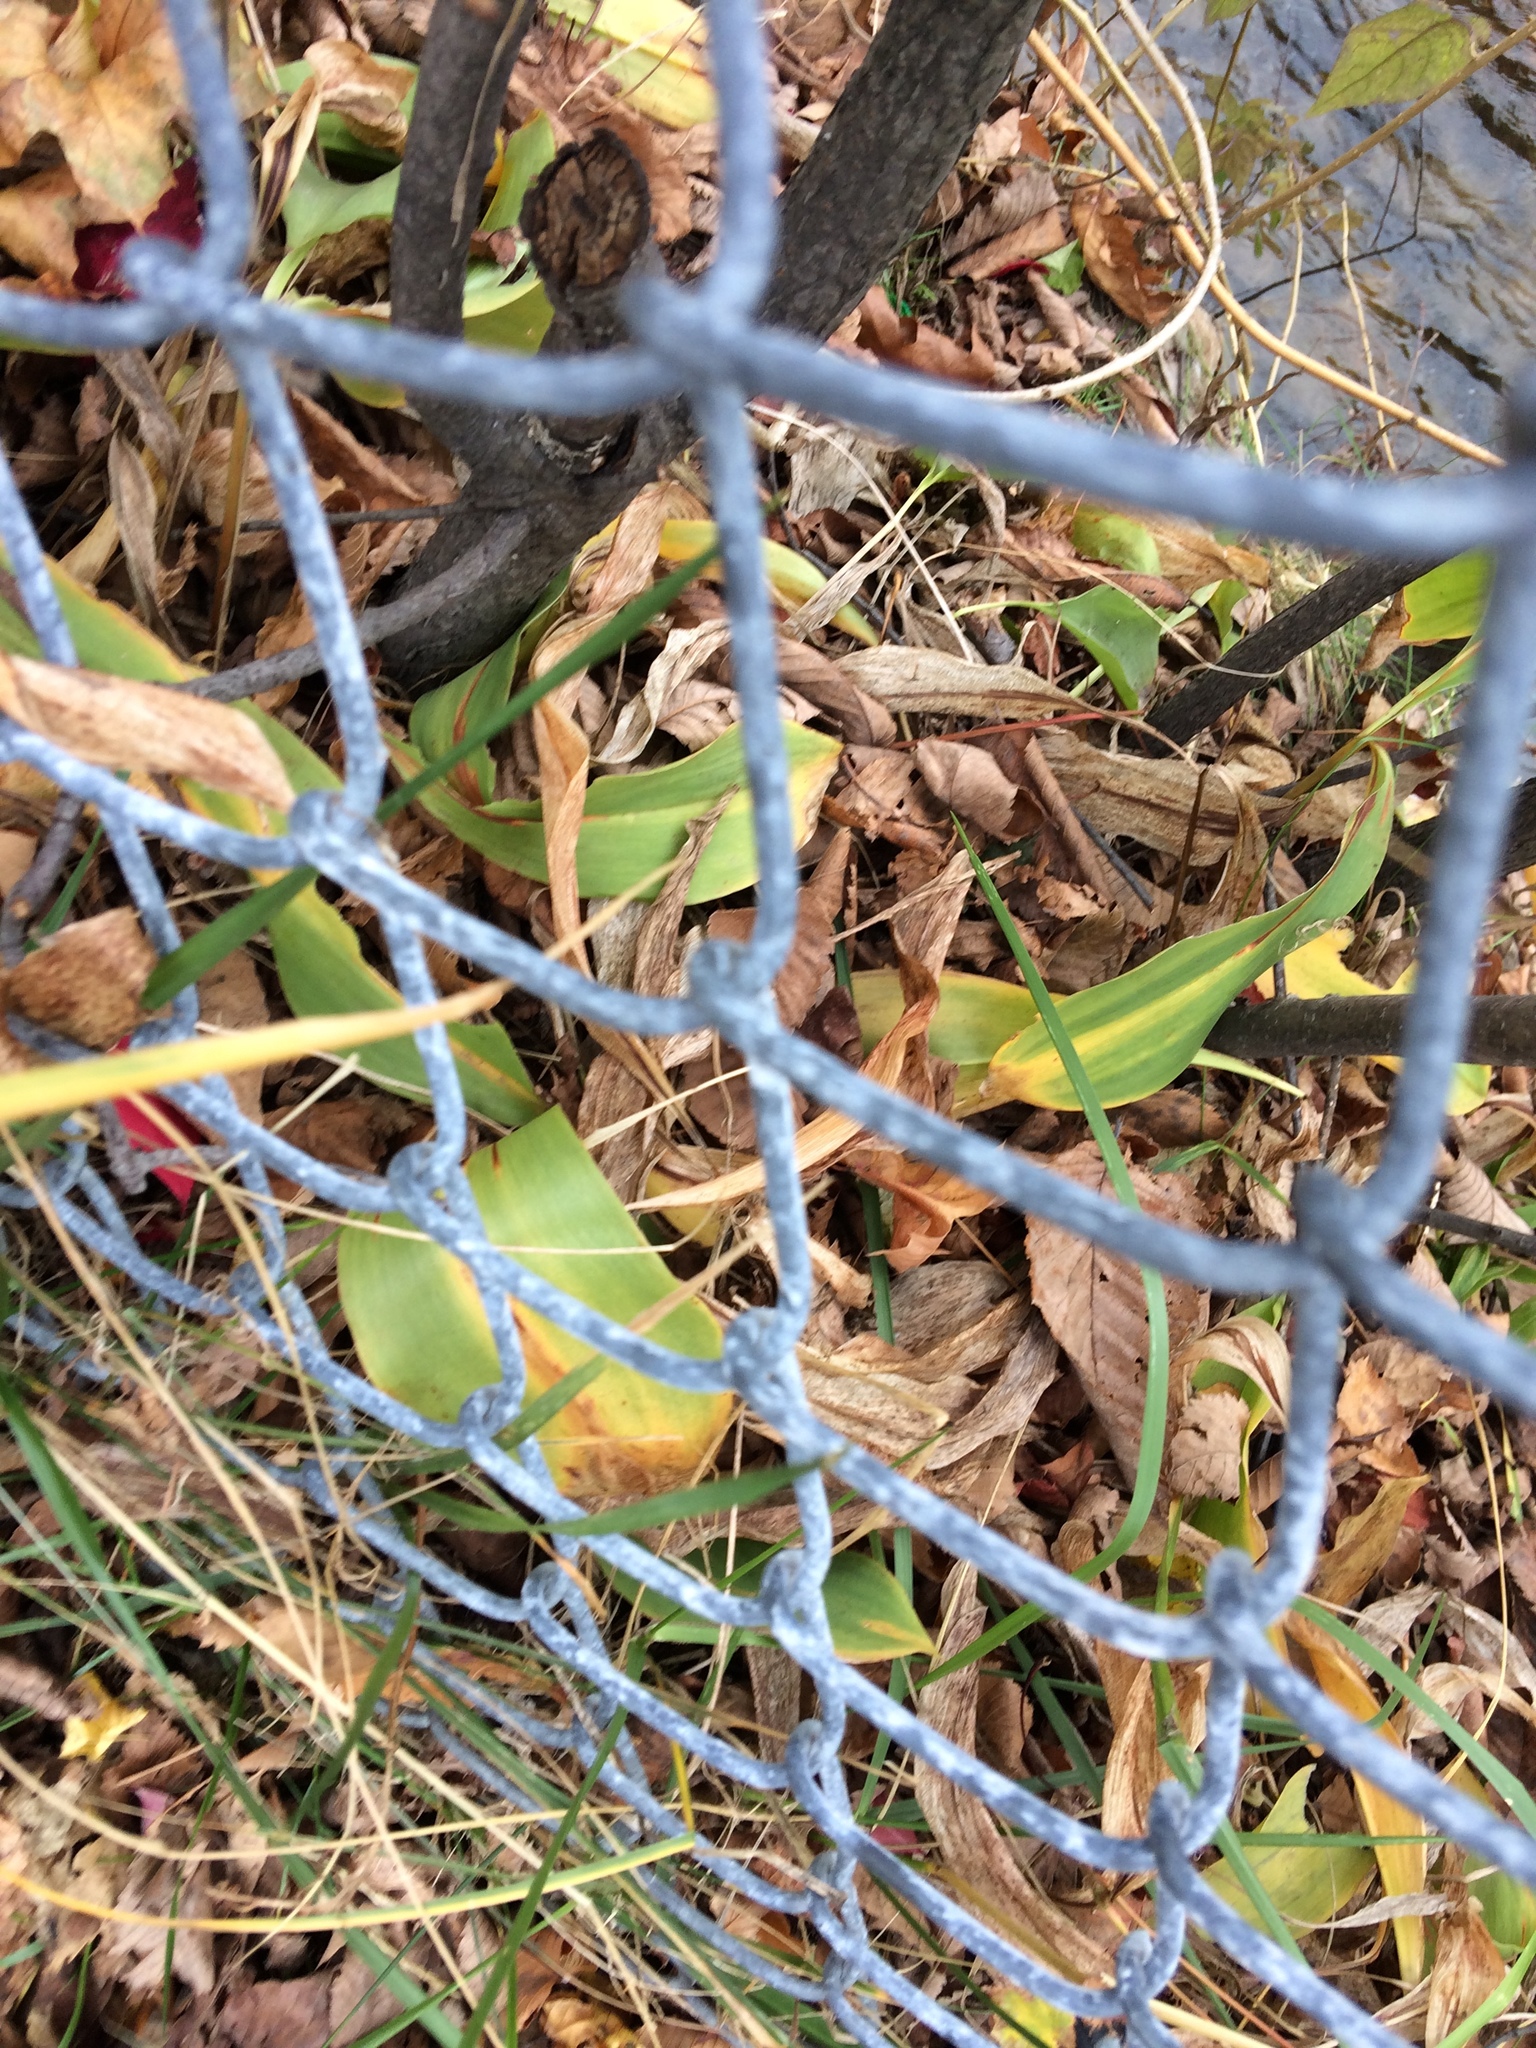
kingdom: Plantae
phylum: Tracheophyta
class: Liliopsida
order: Asparagales
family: Asparagaceae
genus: Convallaria
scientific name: Convallaria majalis
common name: Lily-of-the-valley
